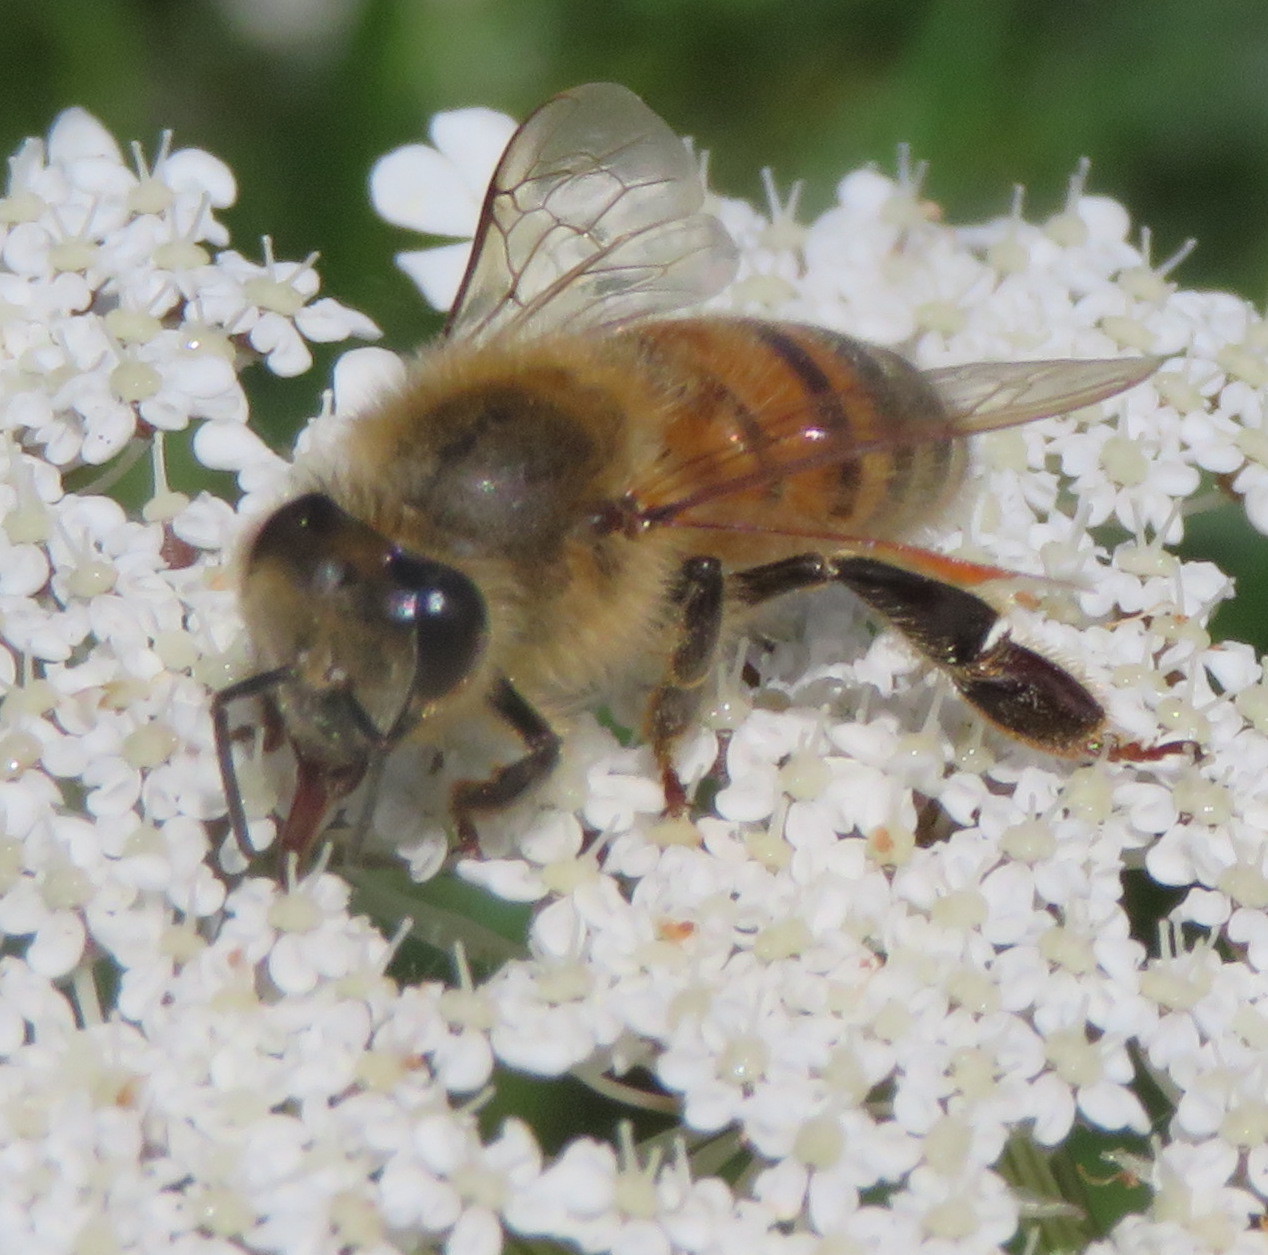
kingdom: Animalia
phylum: Arthropoda
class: Insecta
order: Hymenoptera
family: Apidae
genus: Apis
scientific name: Apis mellifera
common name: Honey bee
